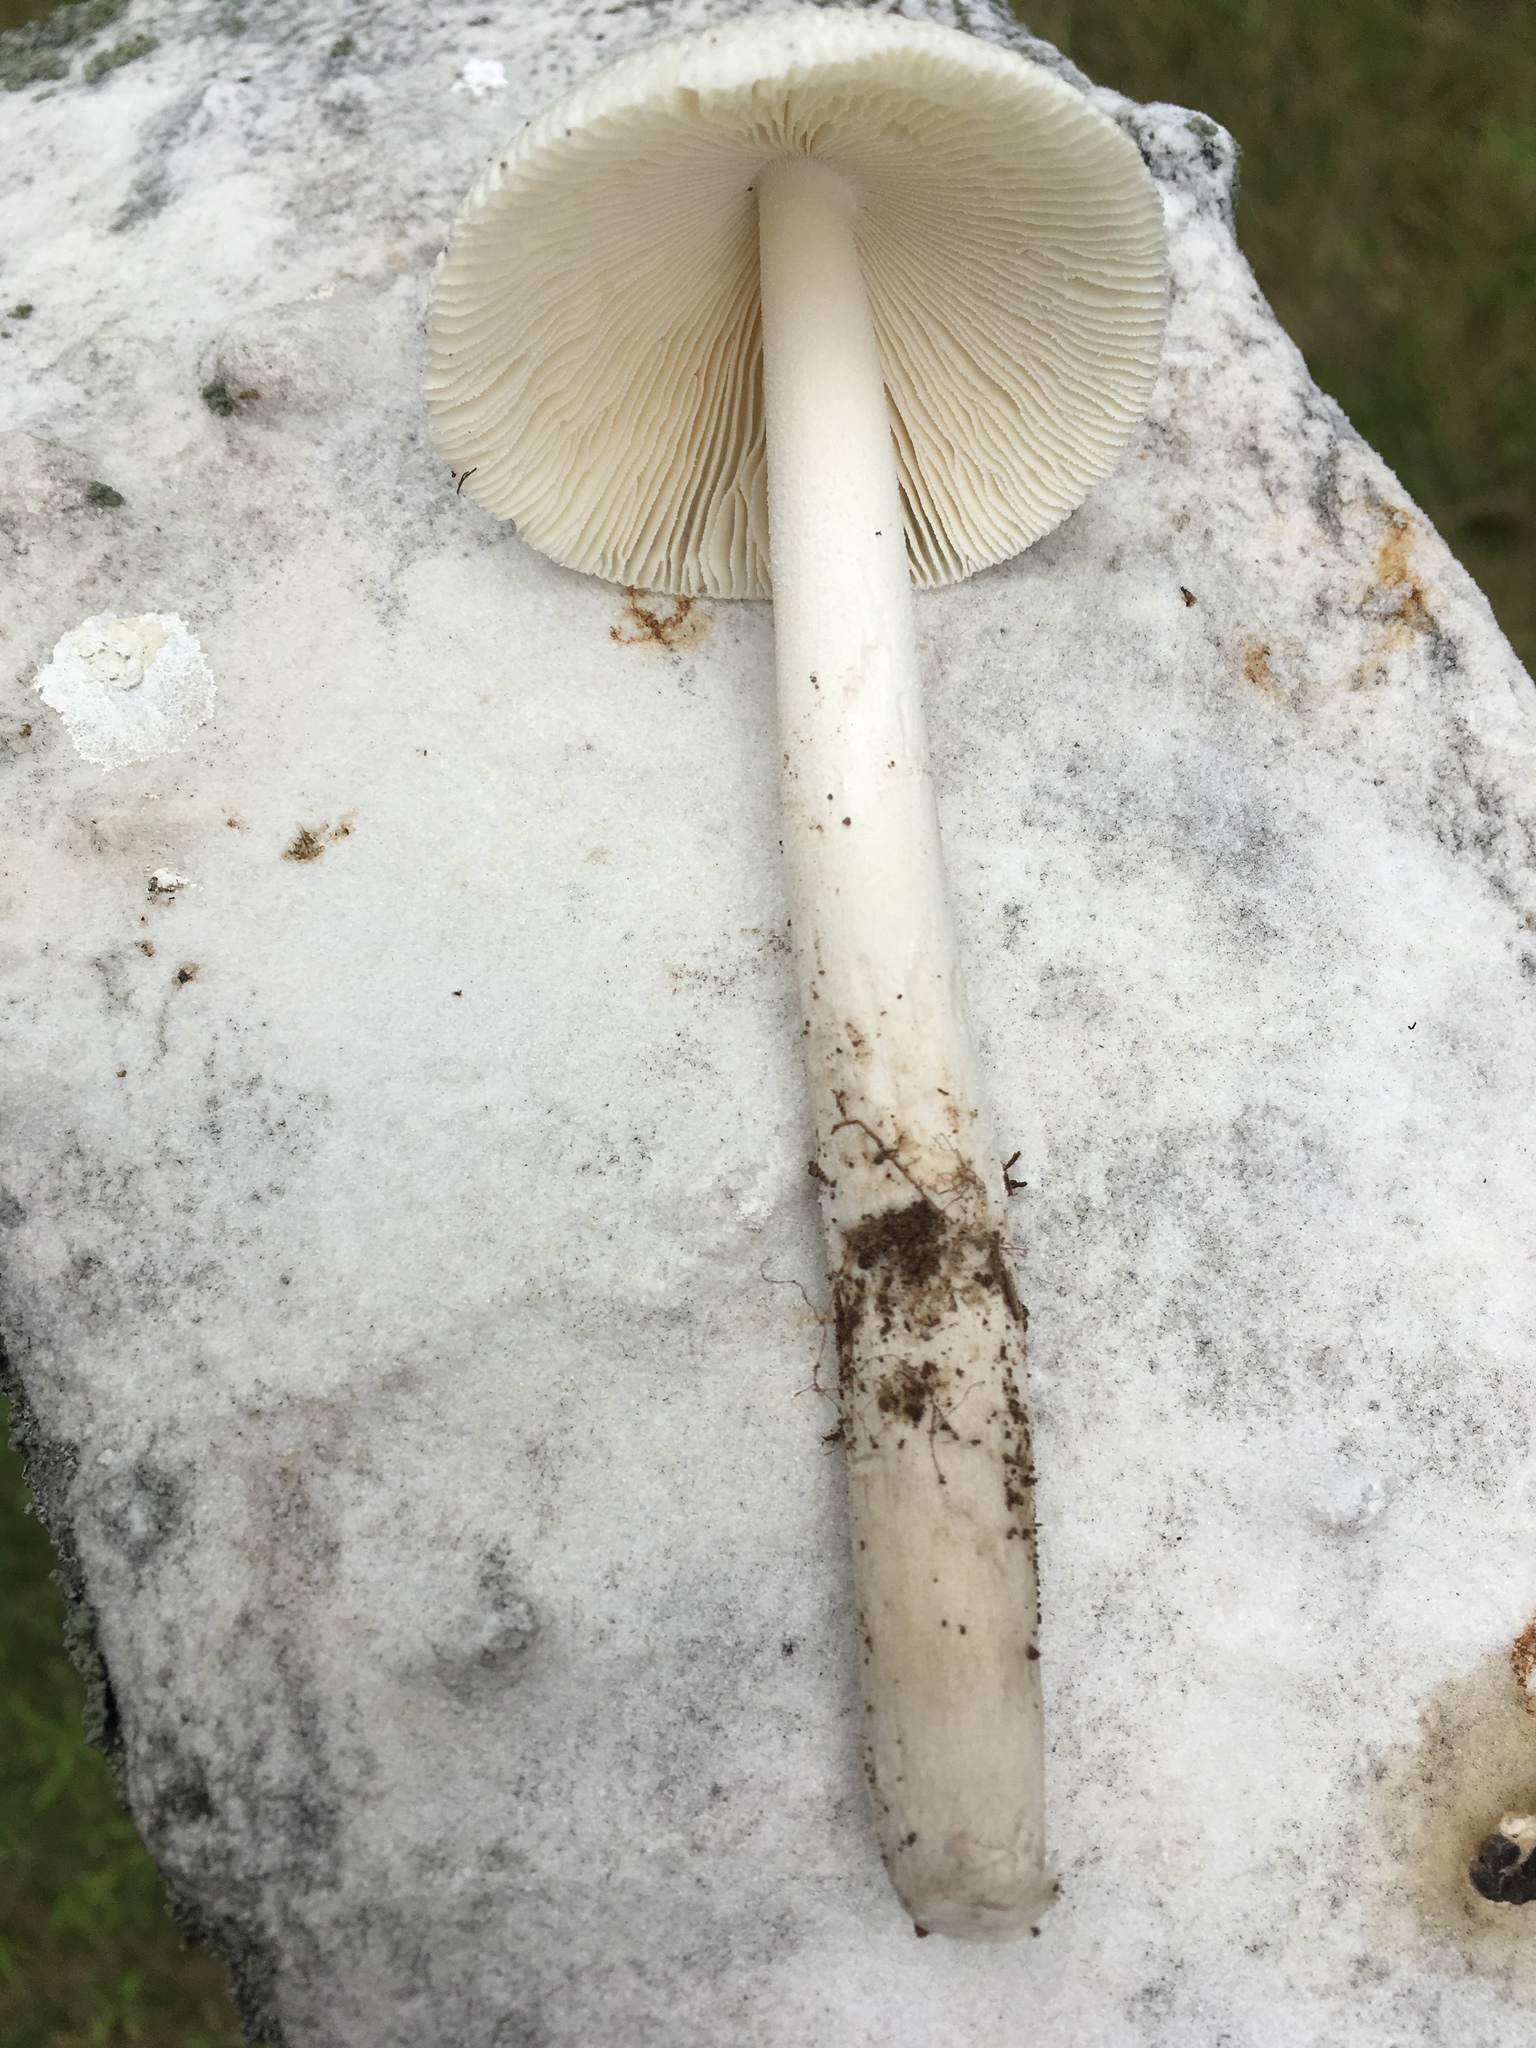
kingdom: Fungi
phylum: Basidiomycota
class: Agaricomycetes
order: Agaricales
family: Amanitaceae
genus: Amanita
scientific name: Amanita vaginata
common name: Grisette
